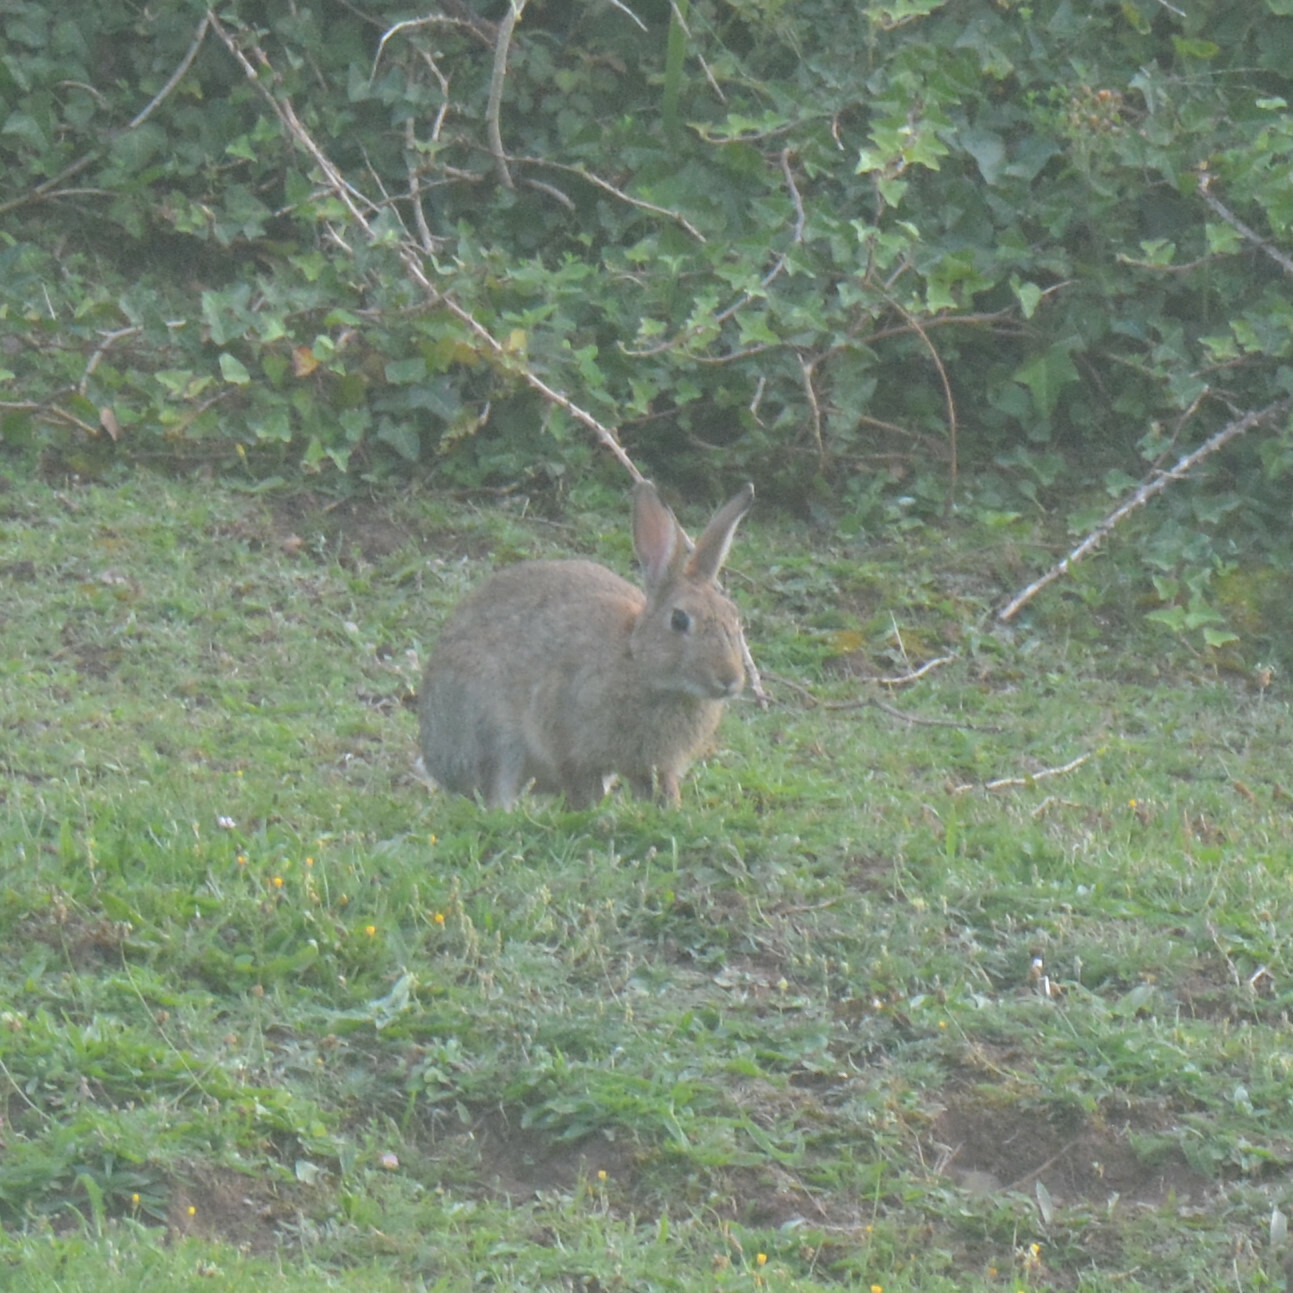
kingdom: Animalia
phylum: Chordata
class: Mammalia
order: Lagomorpha
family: Leporidae
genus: Oryctolagus
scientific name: Oryctolagus cuniculus
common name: European rabbit
